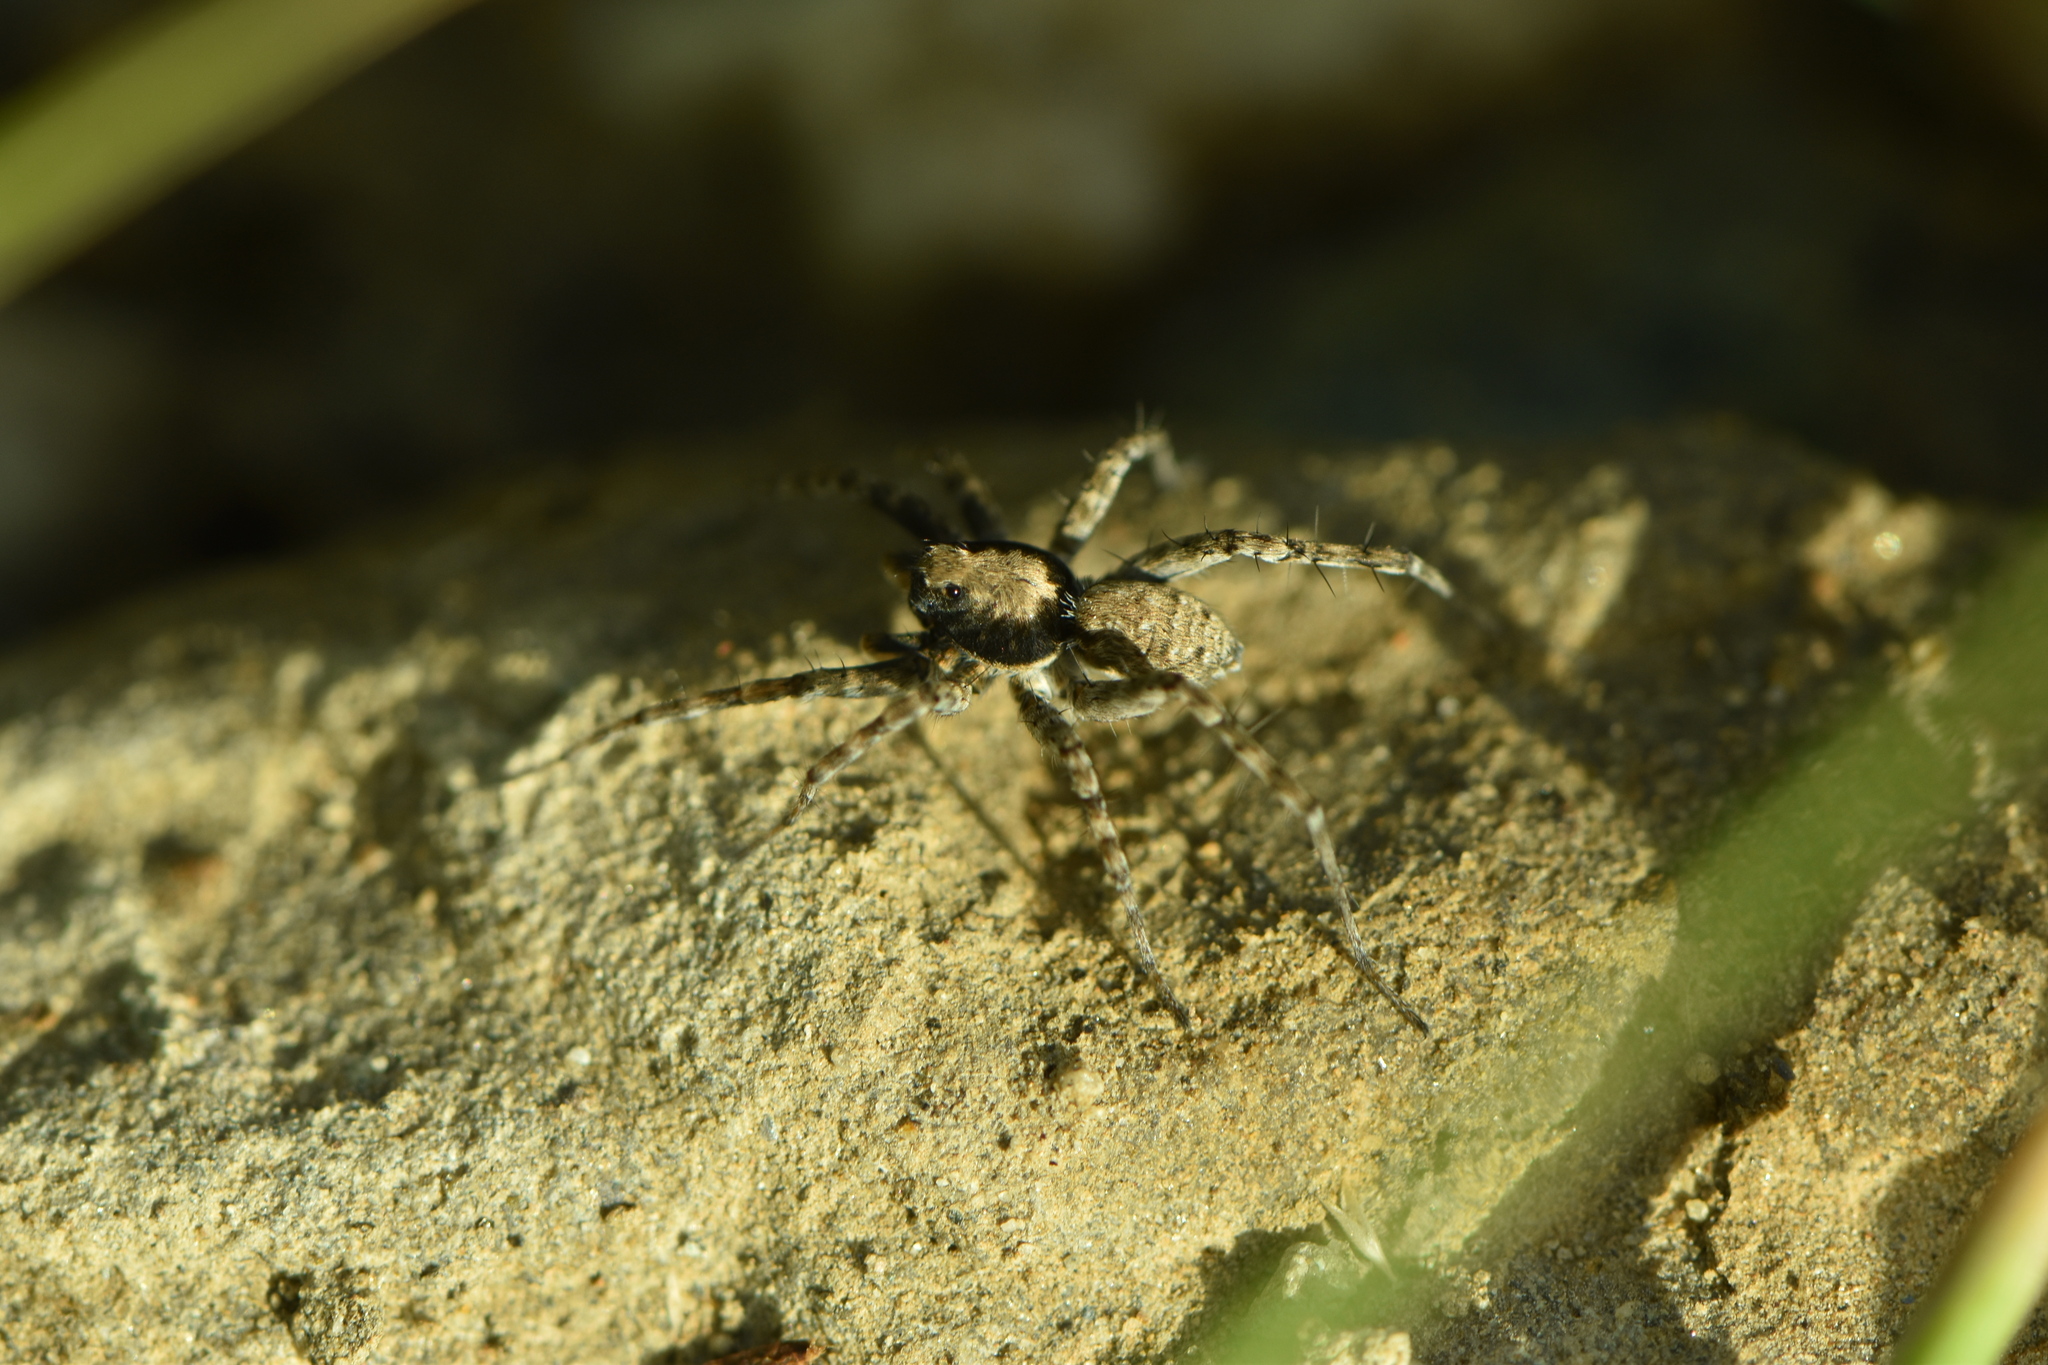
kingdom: Animalia
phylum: Arthropoda
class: Arachnida
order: Araneae
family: Lycosidae
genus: Wadicosa
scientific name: Wadicosa fidelis
